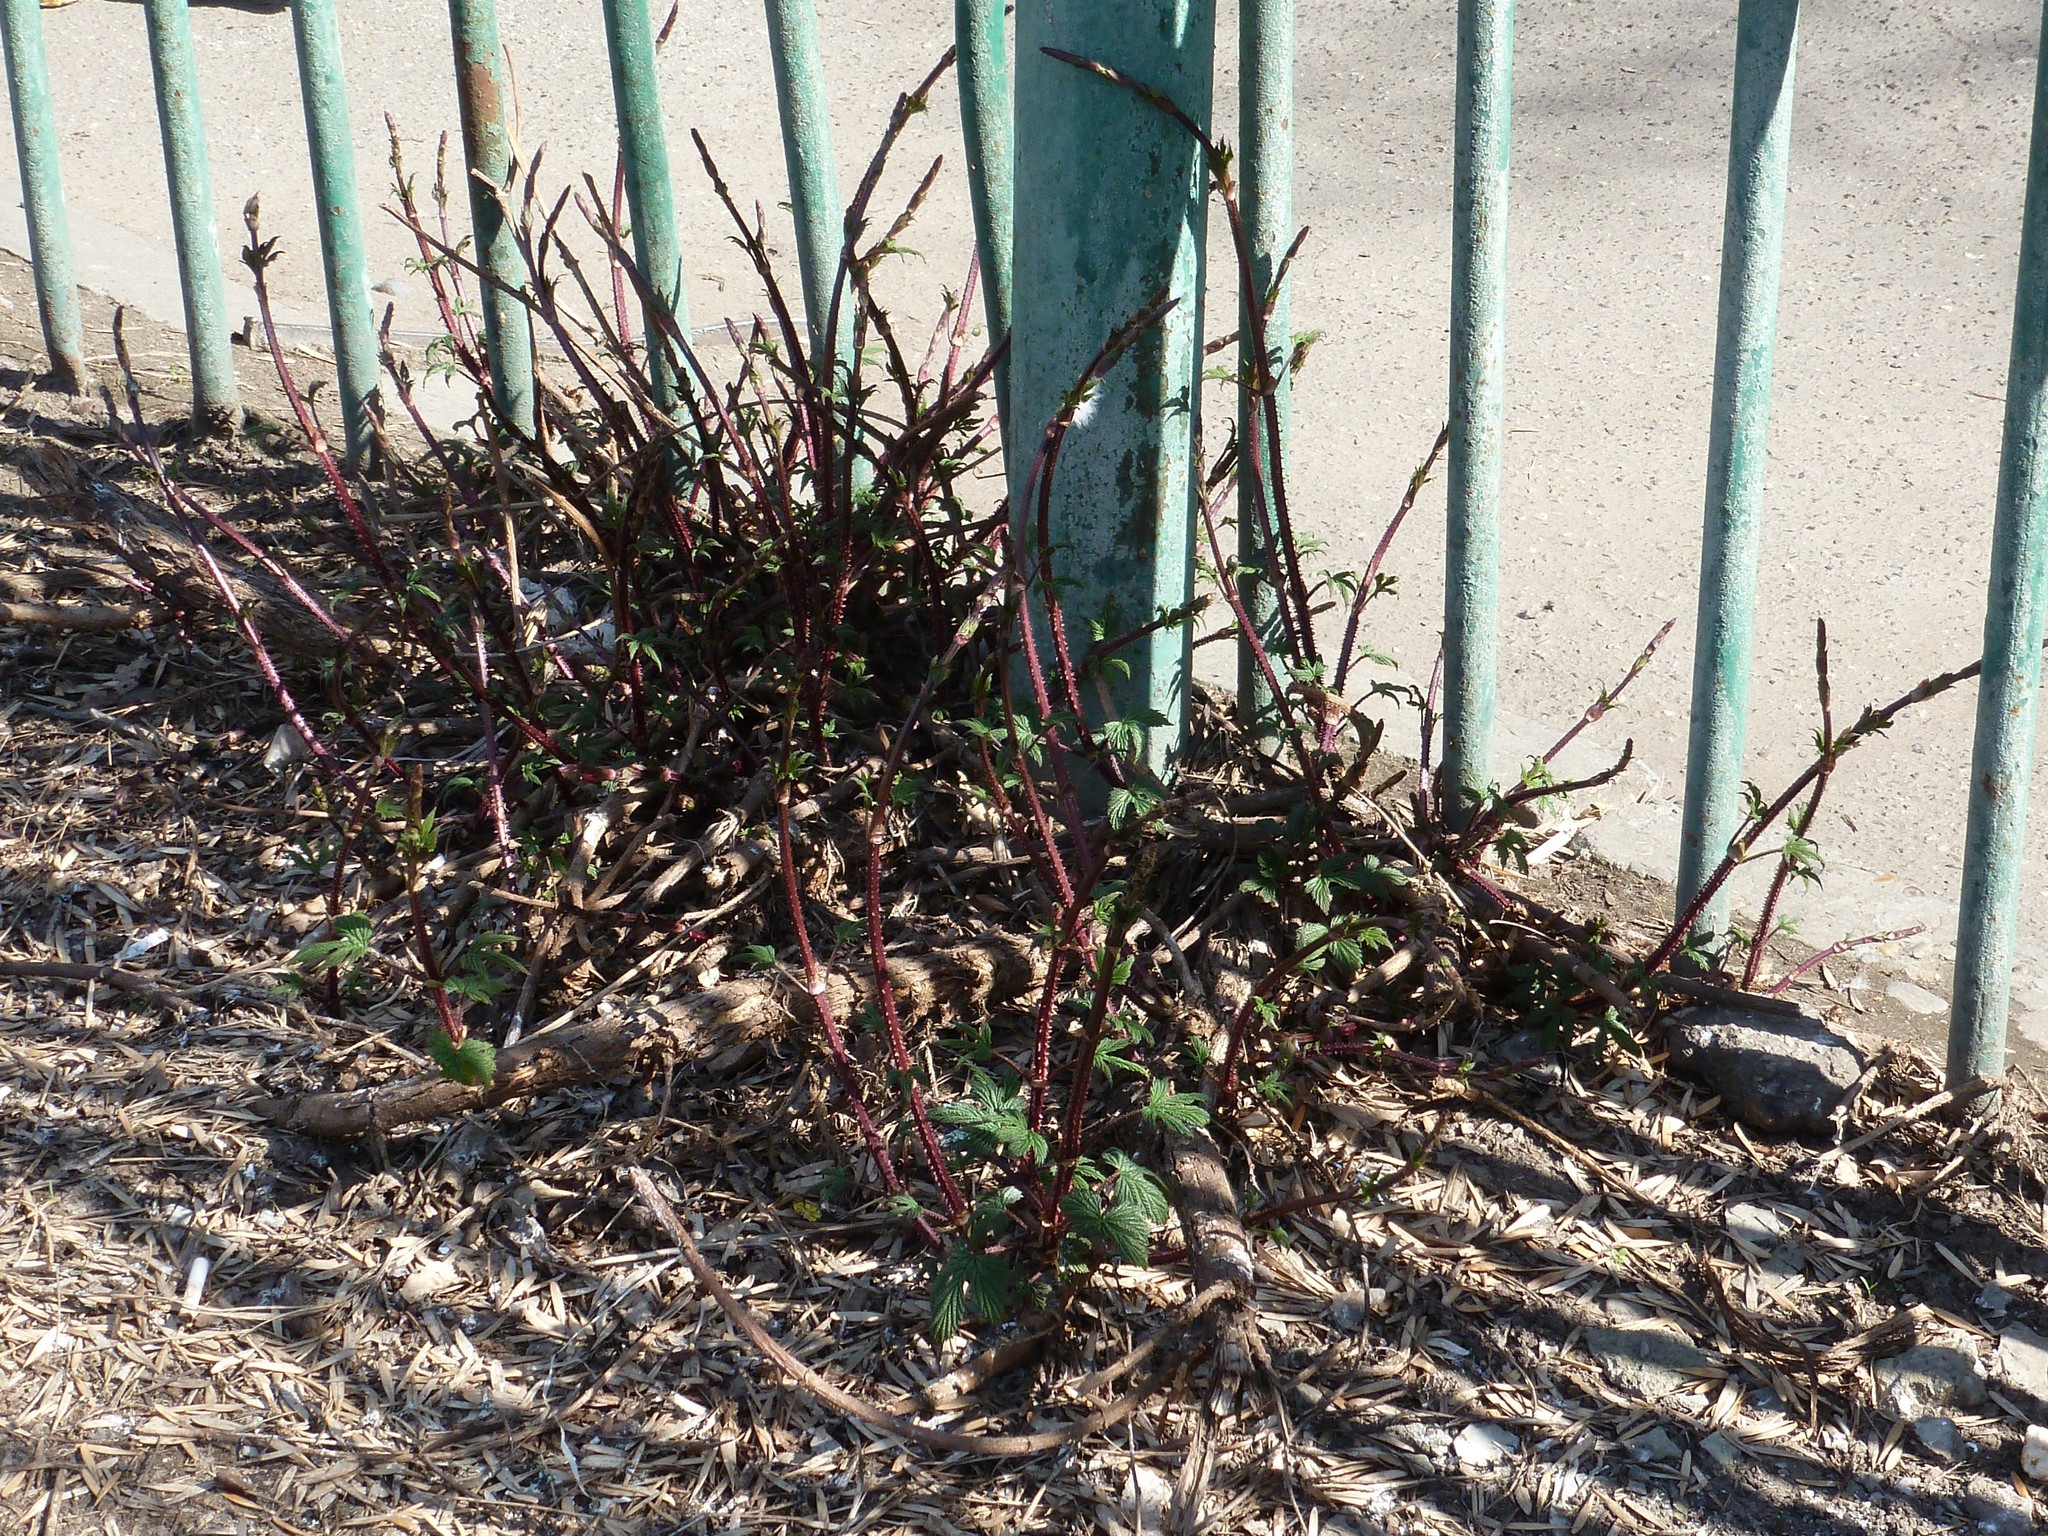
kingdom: Plantae
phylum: Tracheophyta
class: Magnoliopsida
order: Rosales
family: Cannabaceae
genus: Humulus
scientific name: Humulus lupulus
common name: Hop
